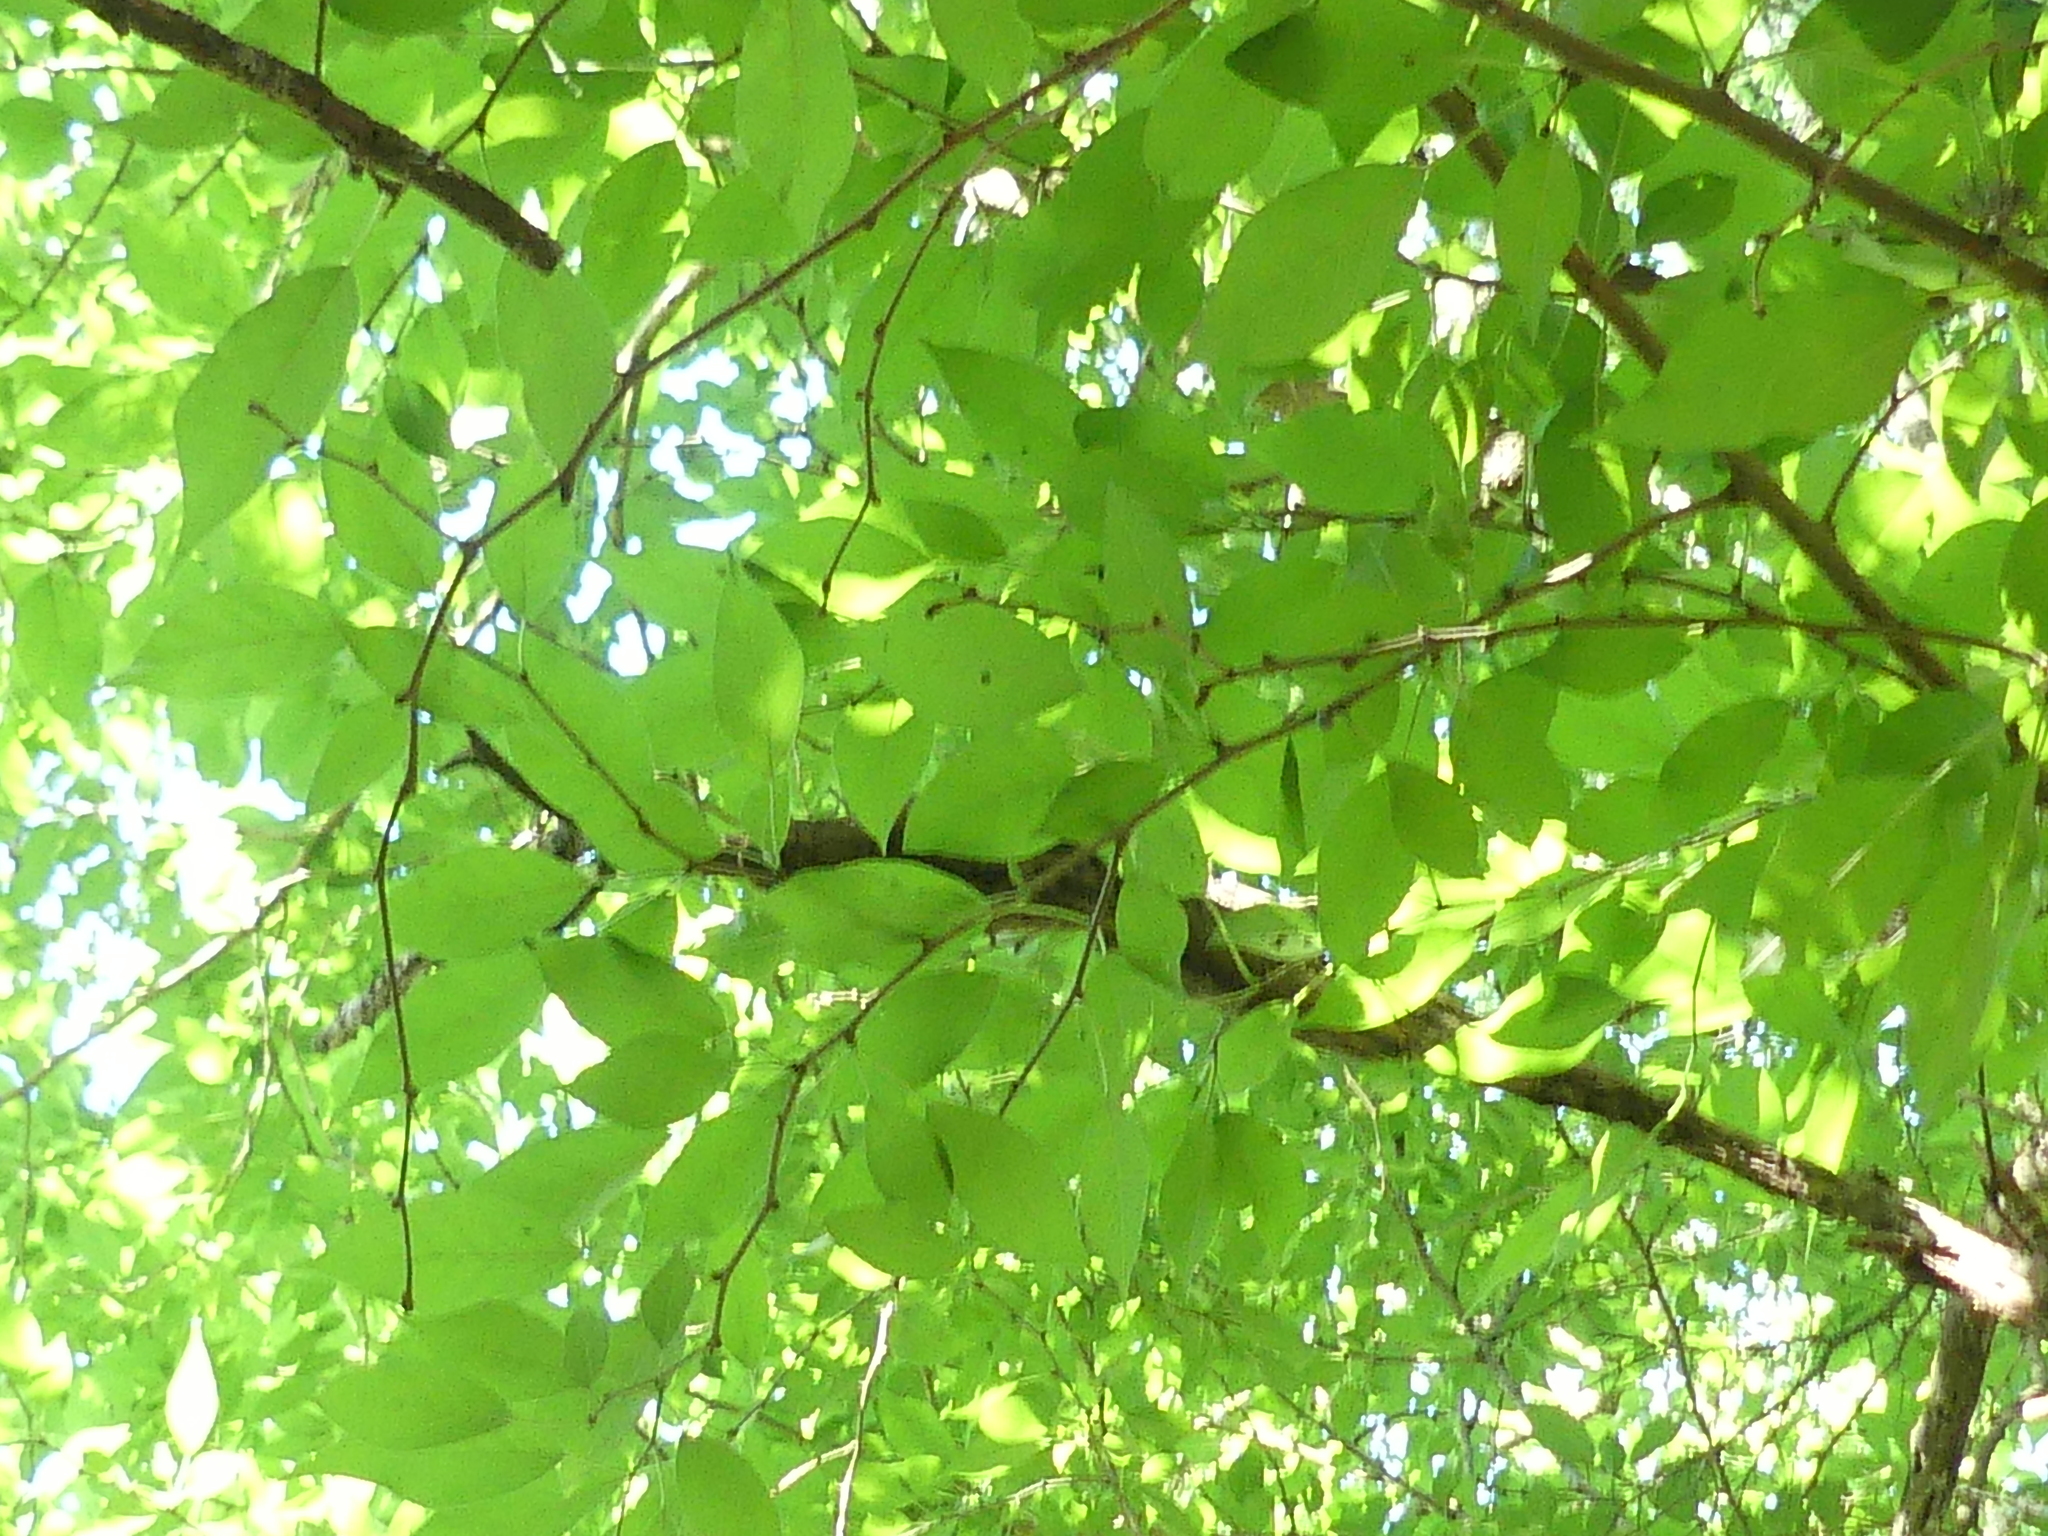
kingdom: Plantae
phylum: Tracheophyta
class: Magnoliopsida
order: Rosales
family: Moraceae
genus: Maclura
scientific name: Maclura pomifera
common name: Osage-orange
